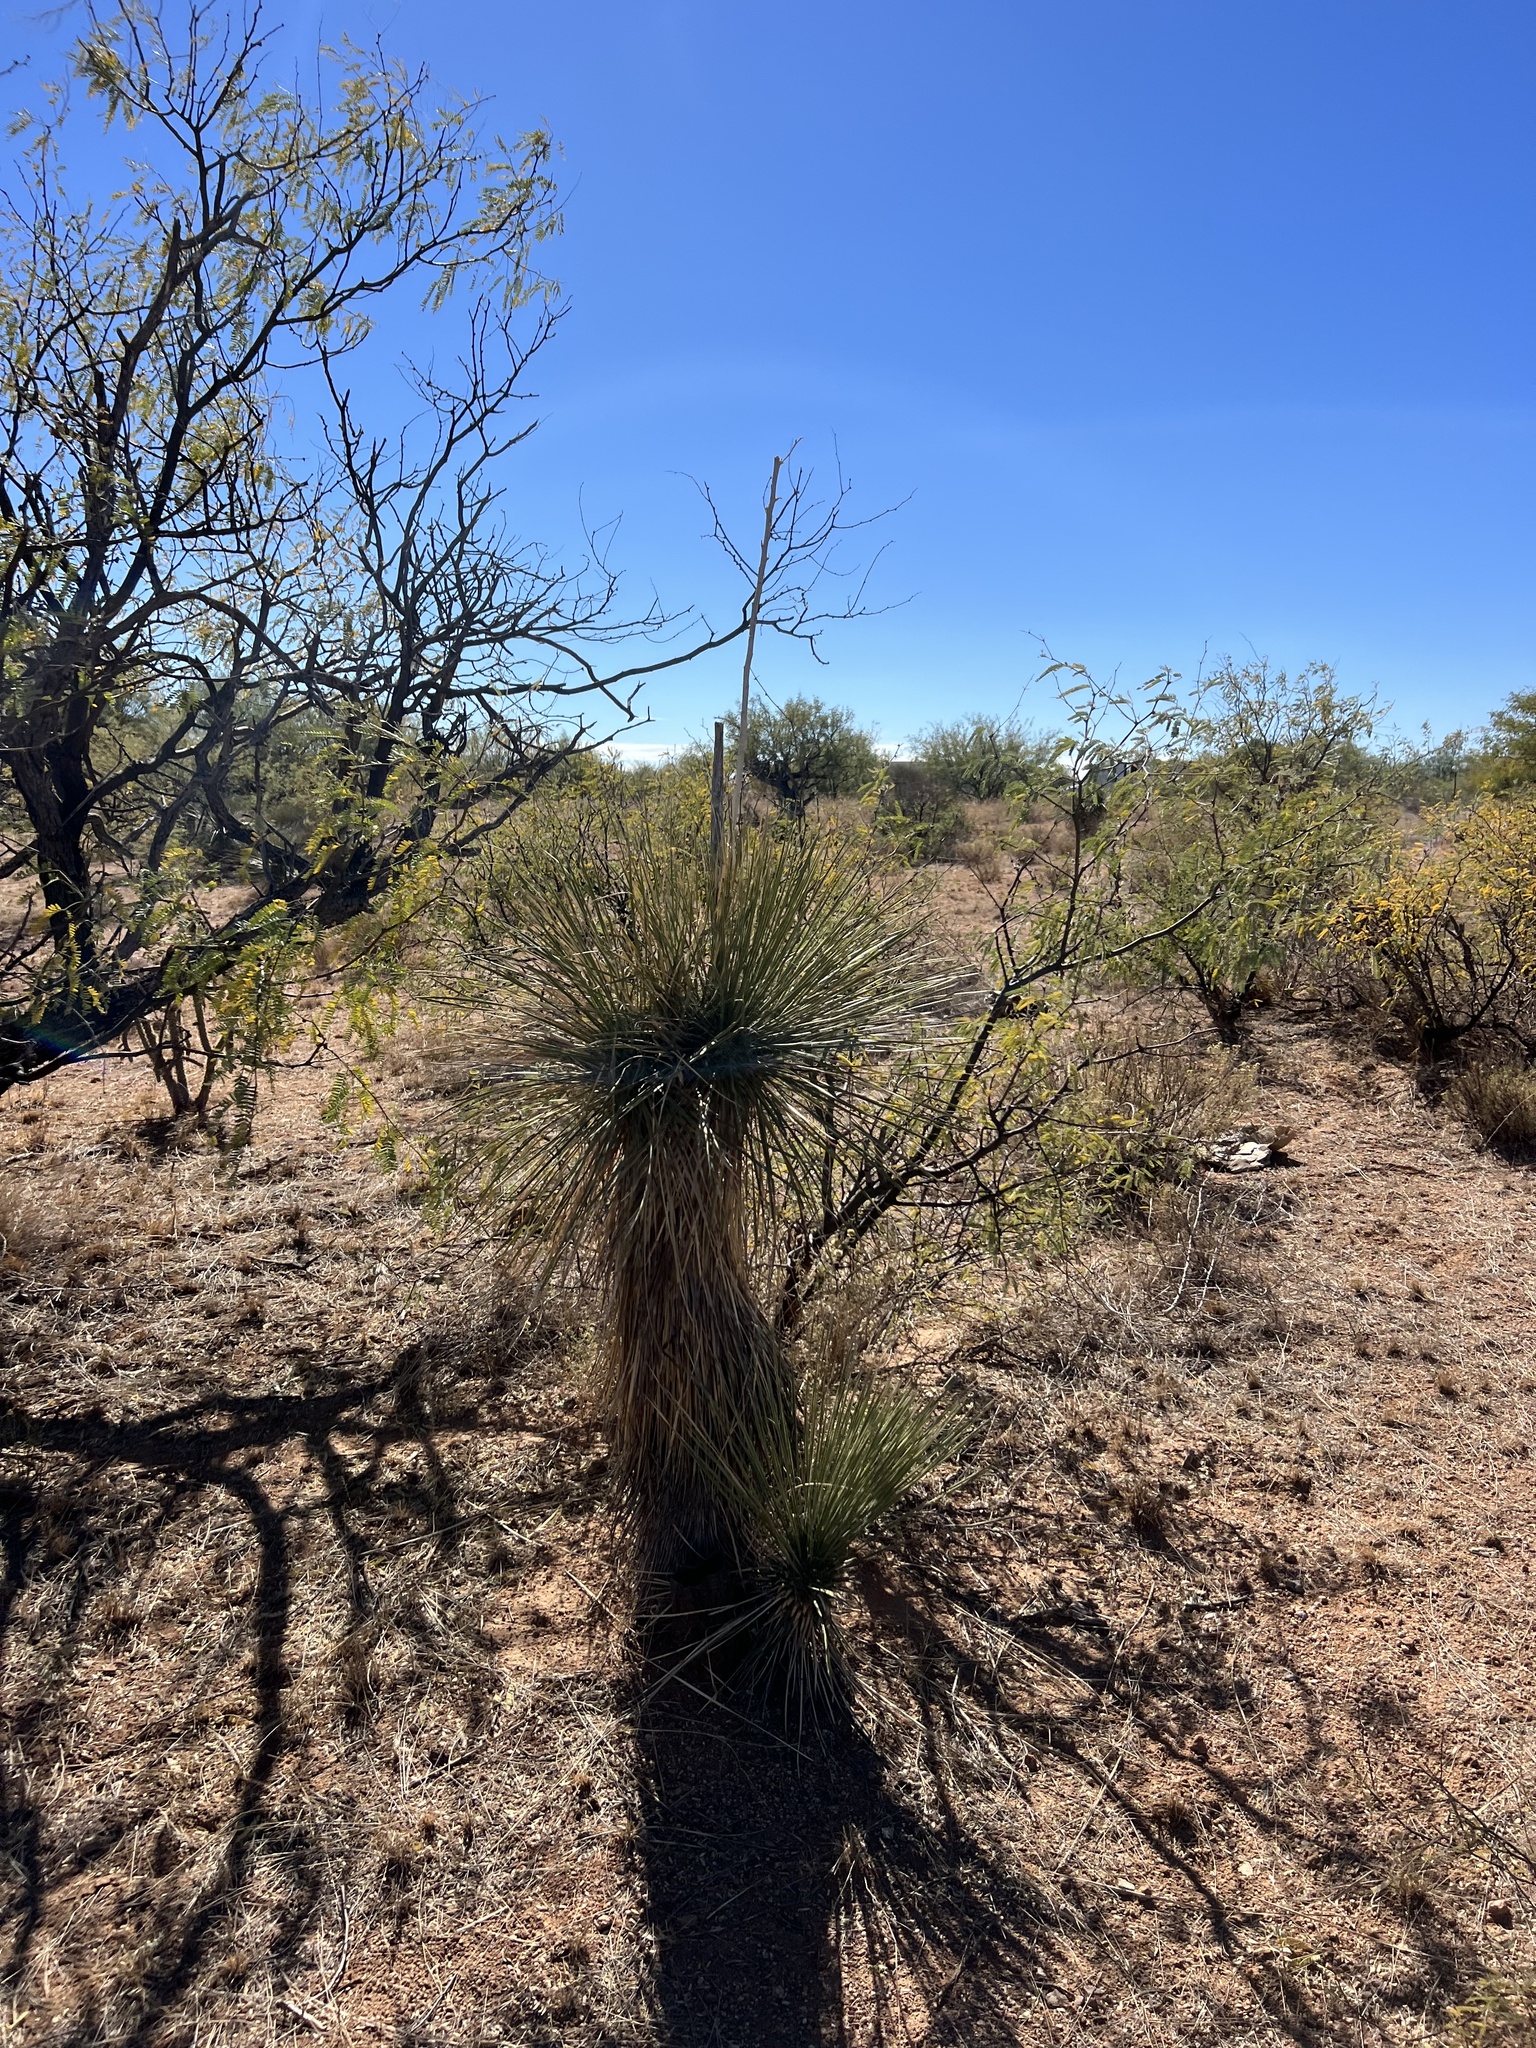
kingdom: Plantae
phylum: Tracheophyta
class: Liliopsida
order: Asparagales
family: Asparagaceae
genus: Yucca
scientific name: Yucca elata
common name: Palmella
